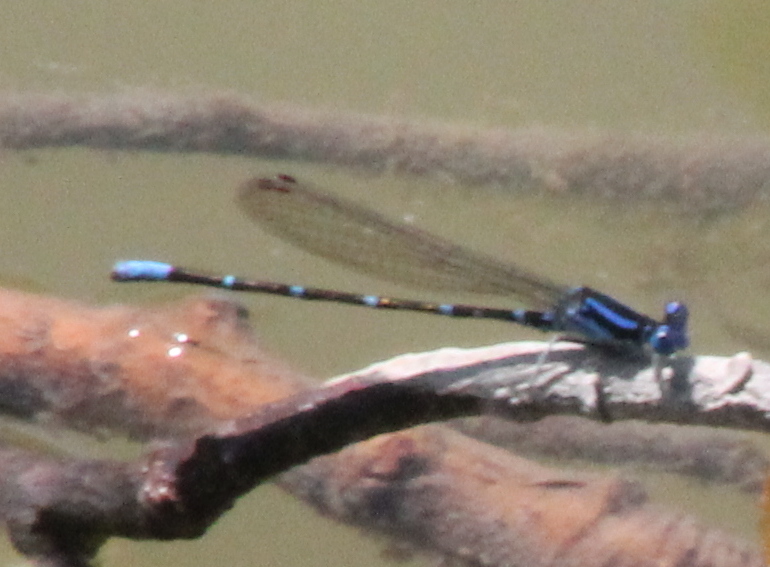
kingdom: Animalia
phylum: Arthropoda
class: Insecta
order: Odonata
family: Coenagrionidae
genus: Argia
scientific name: Argia sedula
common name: Blue-ringed dancer
